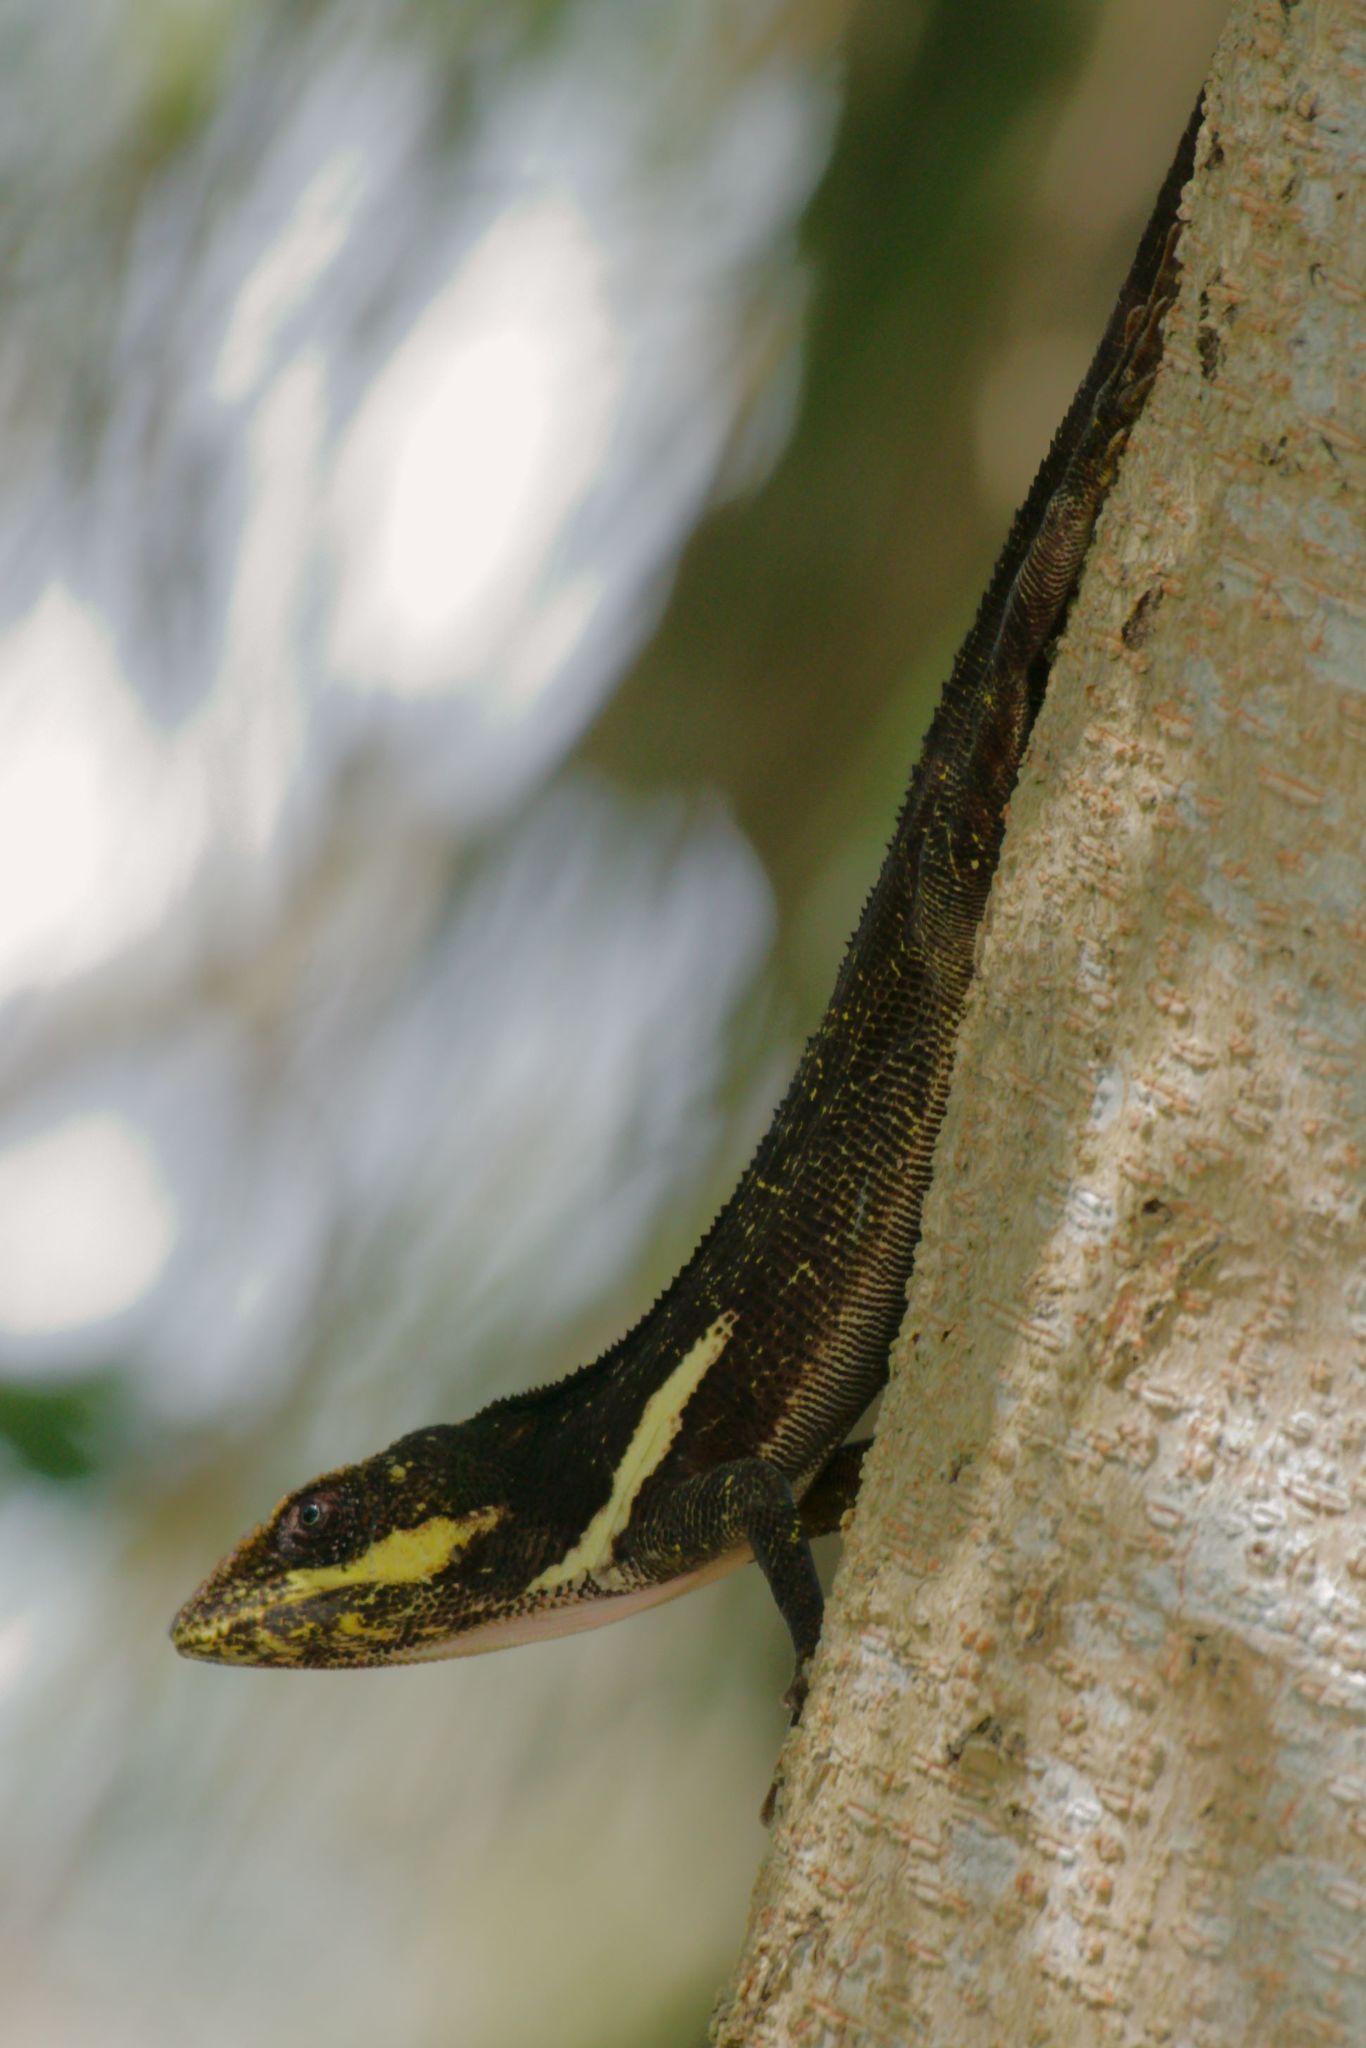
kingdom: Animalia
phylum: Chordata
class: Squamata
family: Dactyloidae
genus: Anolis
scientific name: Anolis equestris
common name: Knight anole
